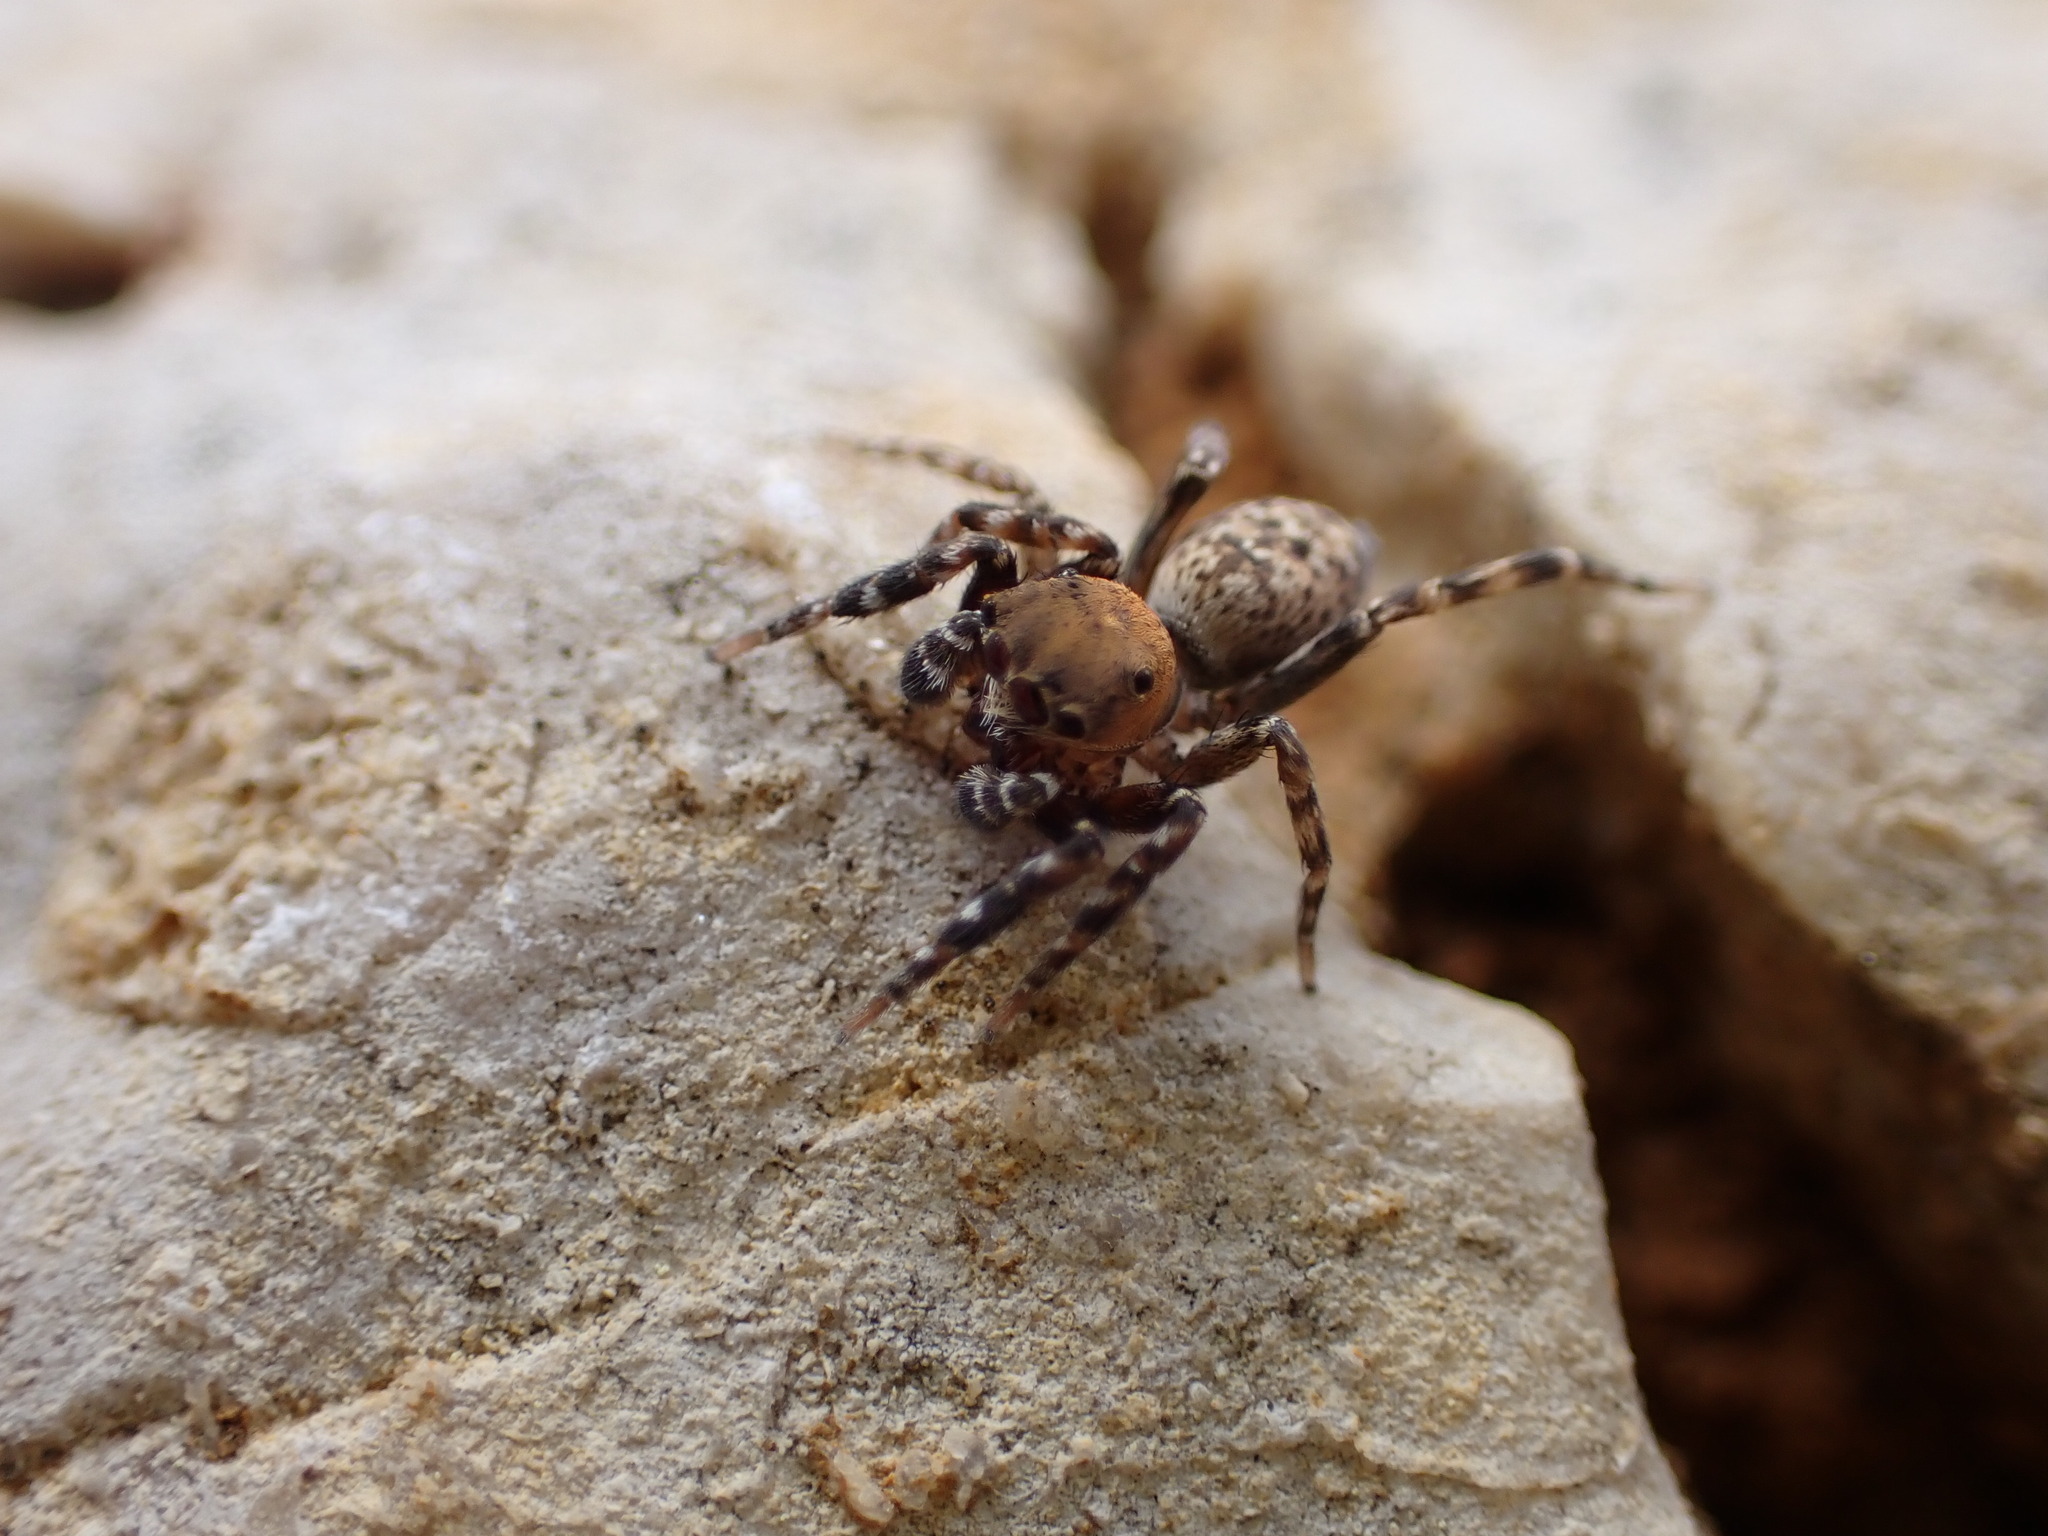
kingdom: Animalia
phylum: Arthropoda
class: Arachnida
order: Araneae
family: Salticidae
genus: Cyrba
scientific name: Cyrba algerina
